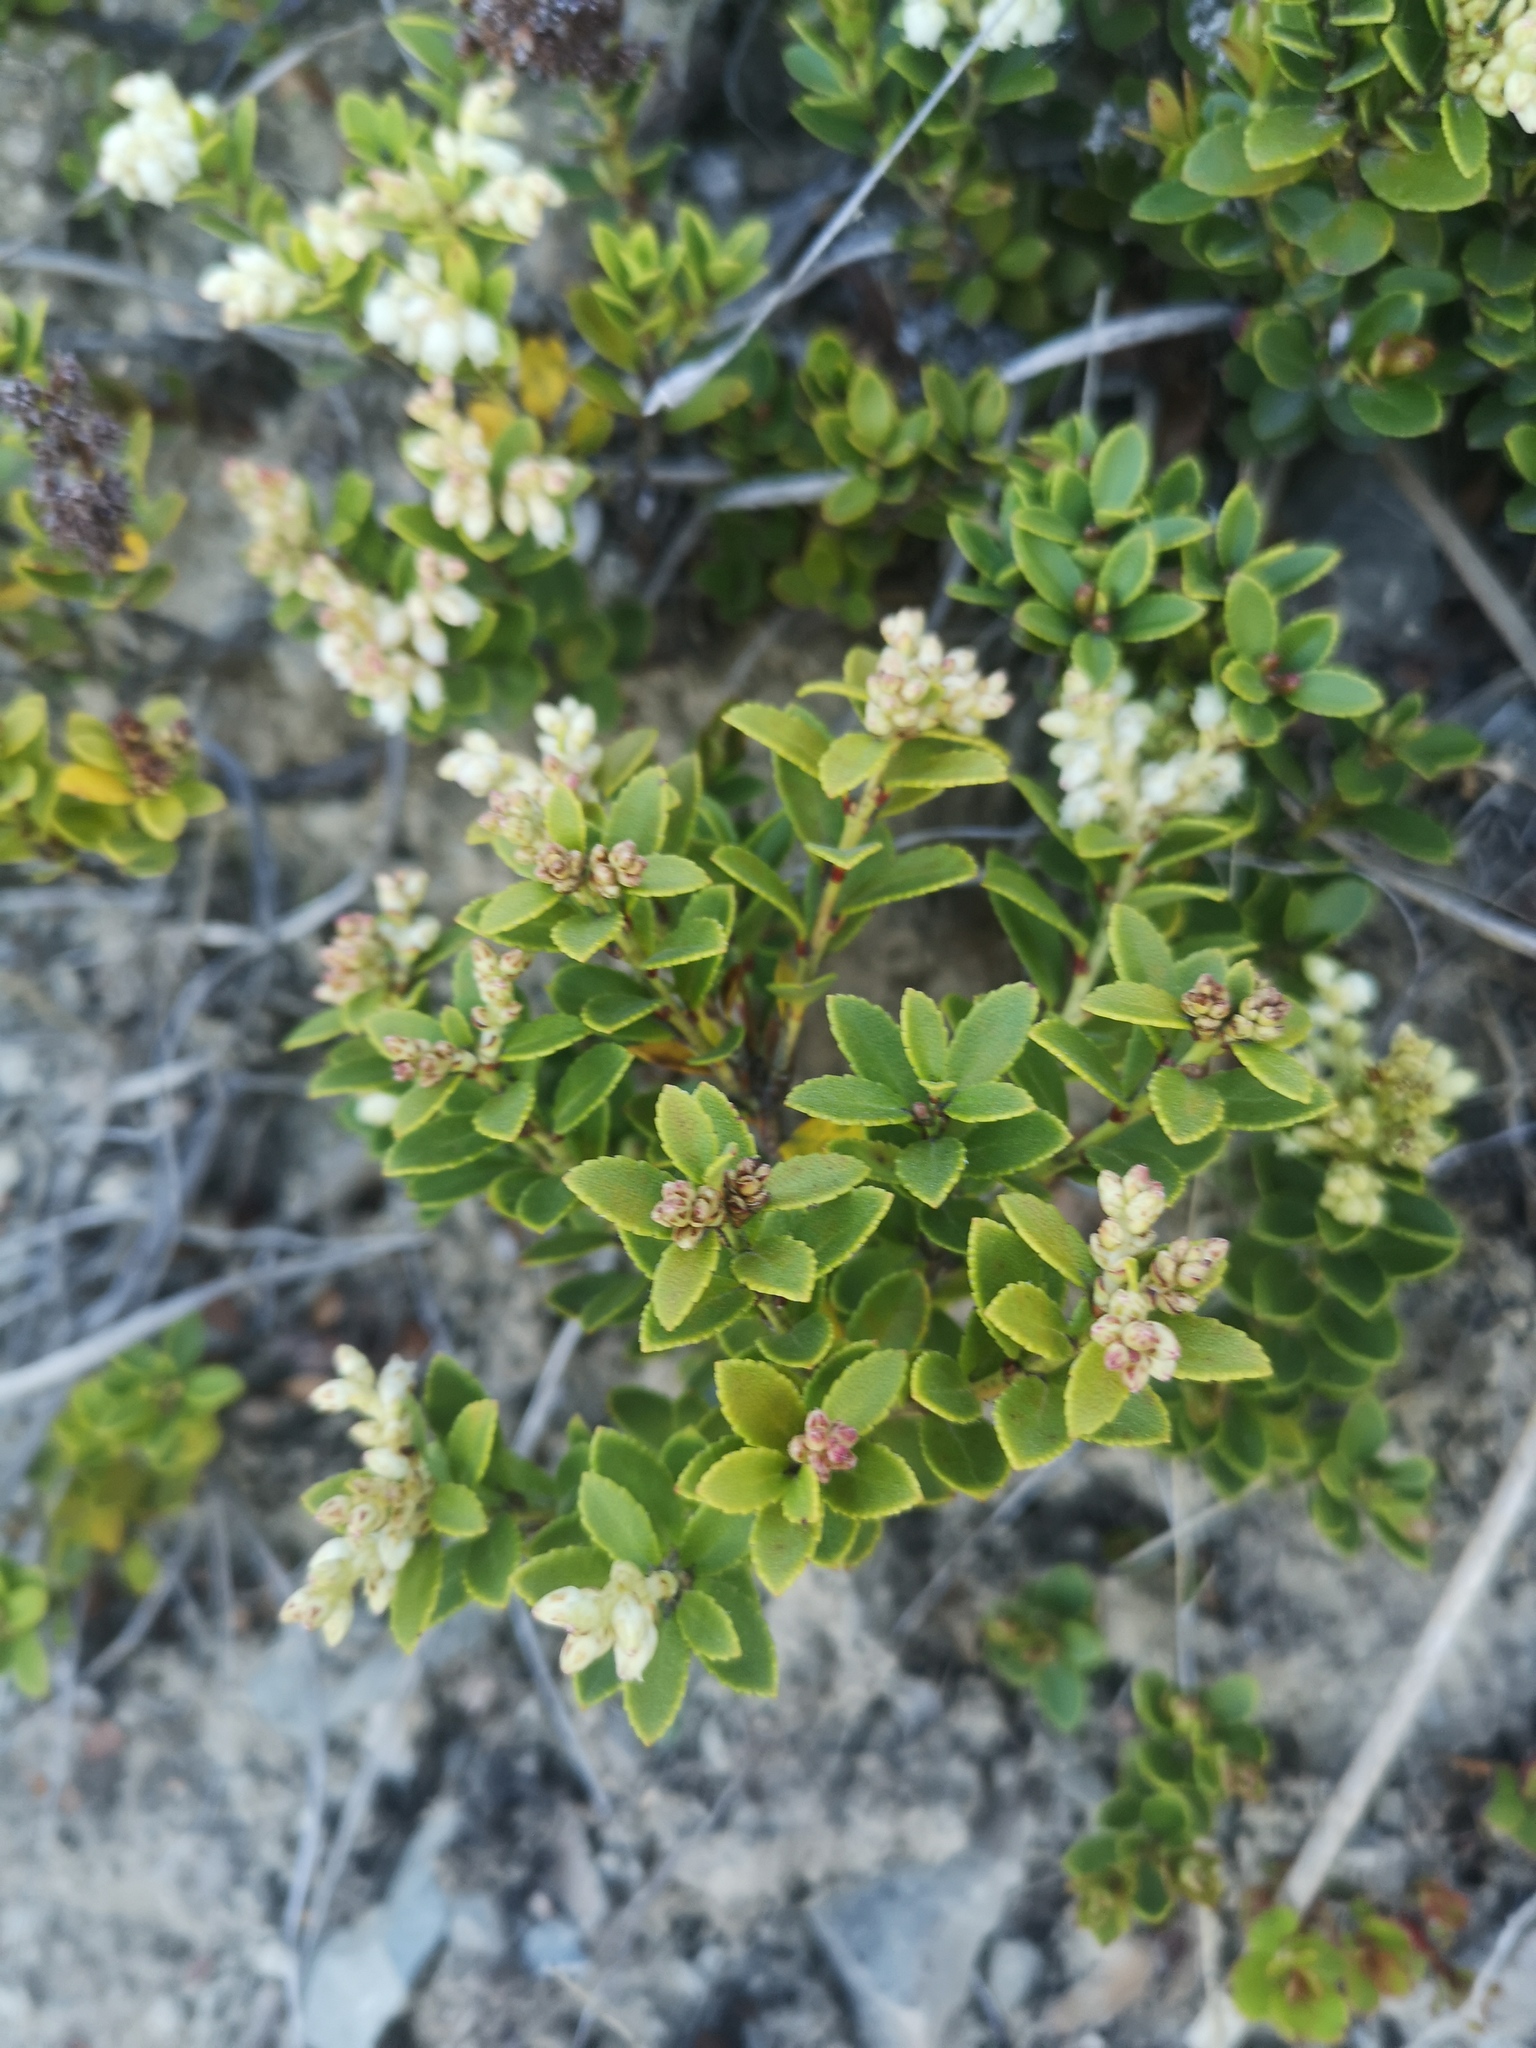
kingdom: Plantae
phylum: Tracheophyta
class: Magnoliopsida
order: Ericales
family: Ericaceae
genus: Gaultheria
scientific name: Gaultheria crassa
